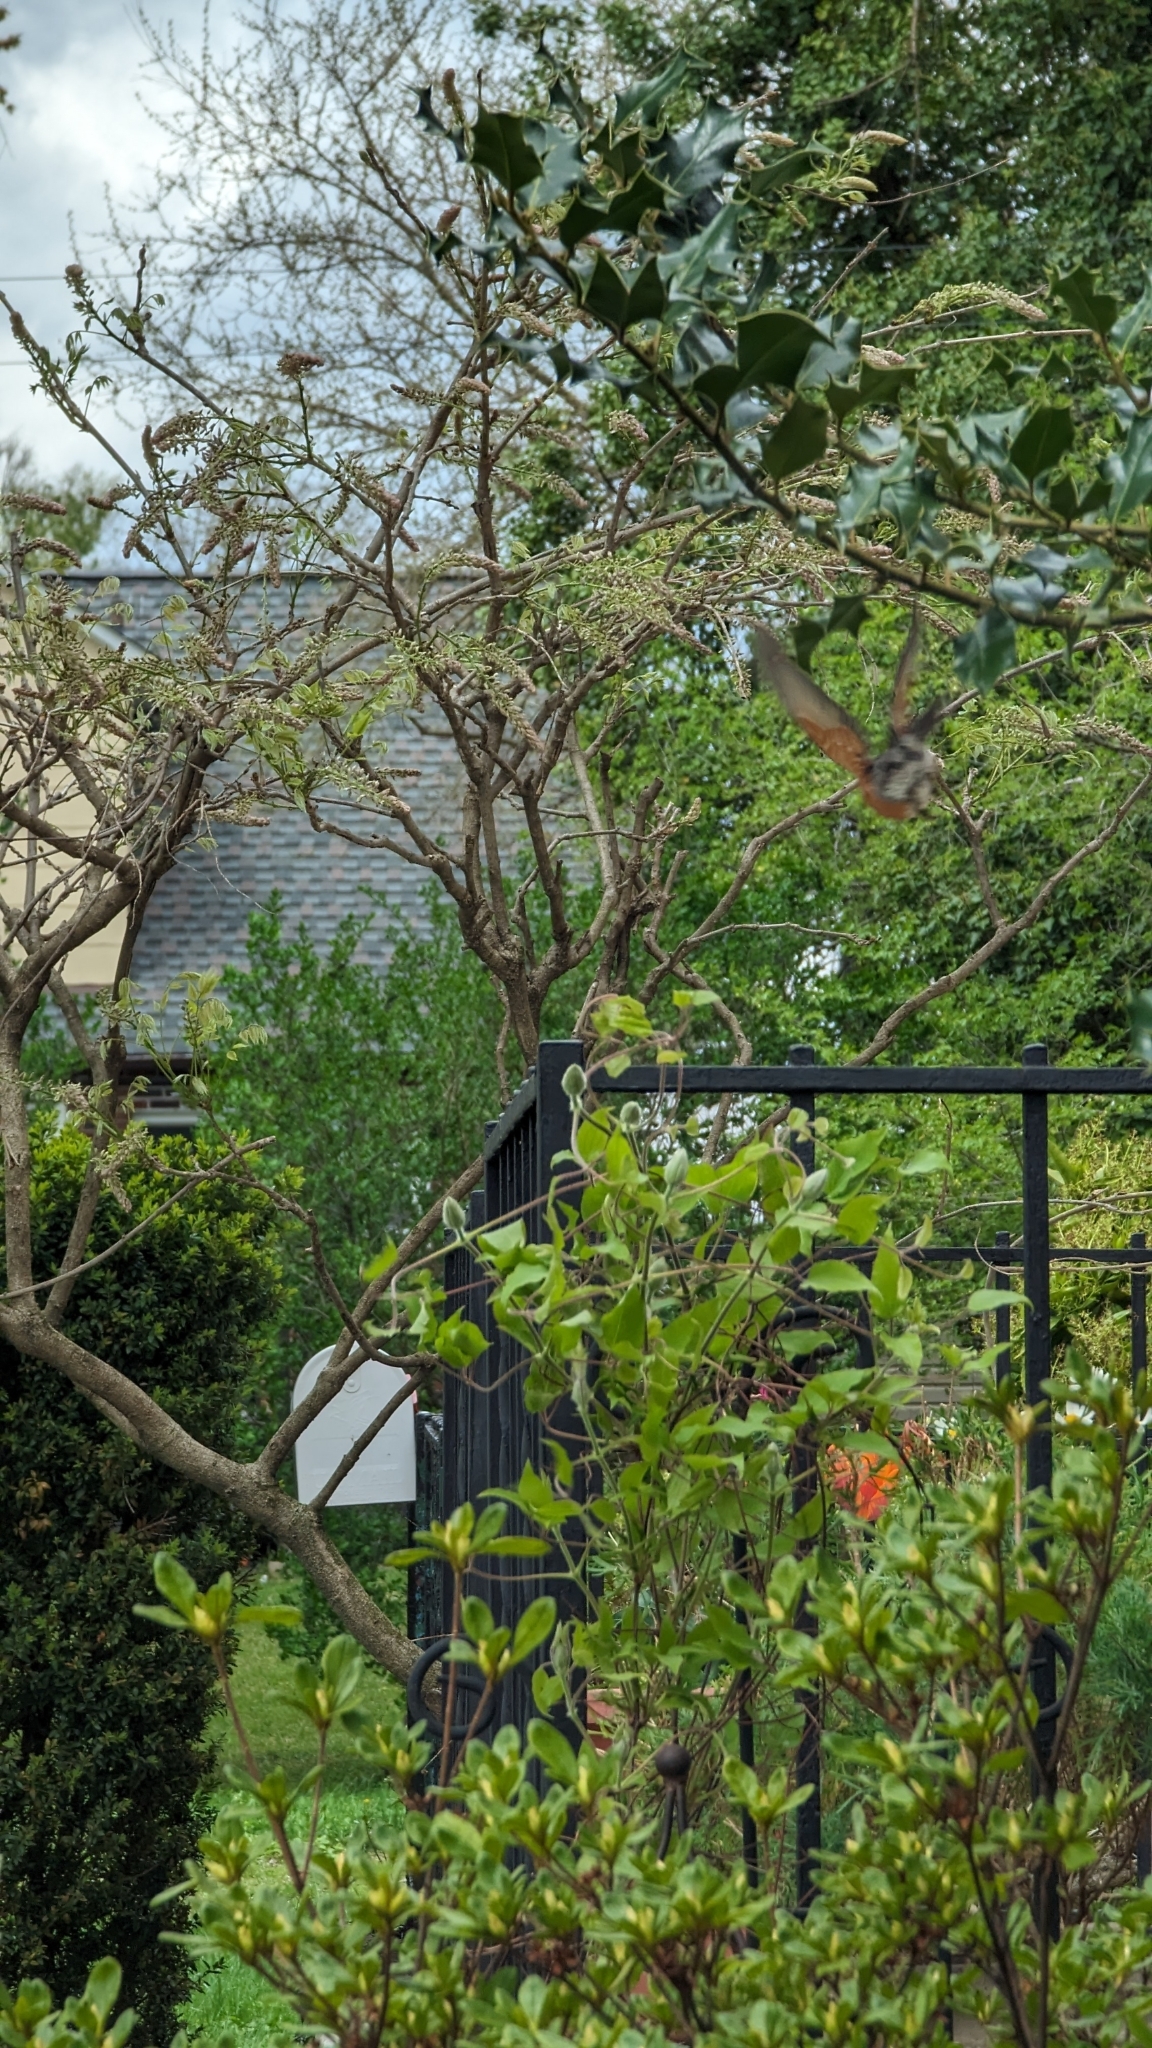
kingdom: Animalia
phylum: Chordata
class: Aves
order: Passeriformes
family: Turdidae
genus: Turdus
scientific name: Turdus migratorius
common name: American robin
